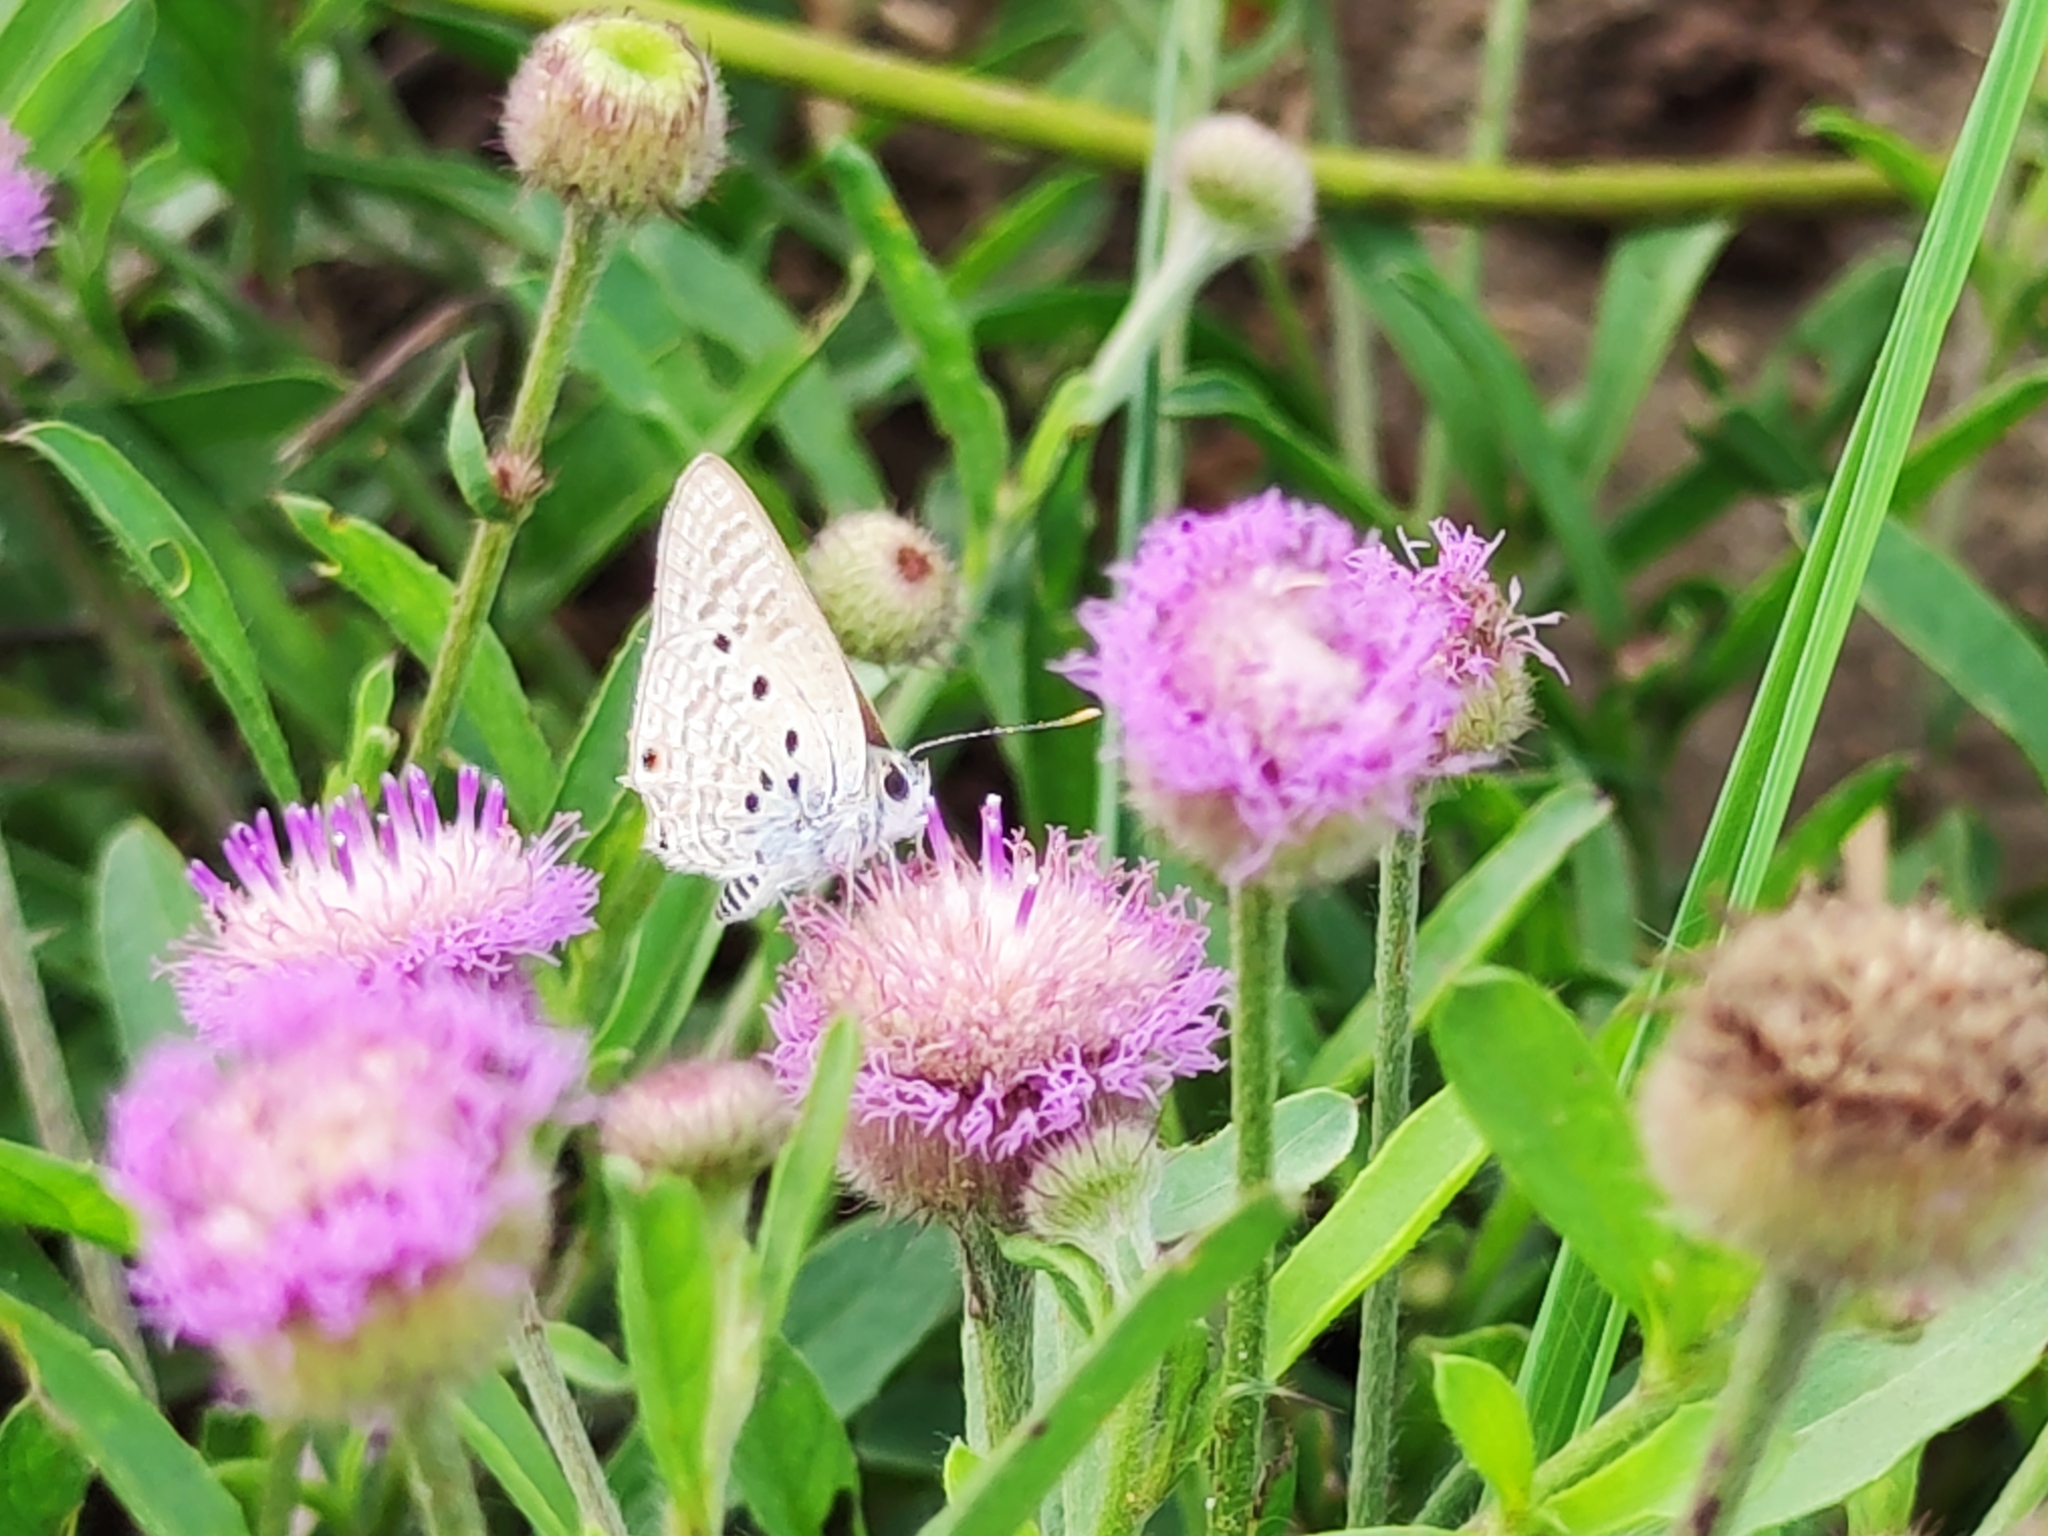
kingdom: Animalia
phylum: Arthropoda
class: Insecta
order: Lepidoptera
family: Lycaenidae
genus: Anthene
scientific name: Anthene amarah
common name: Black-striped hairtail
